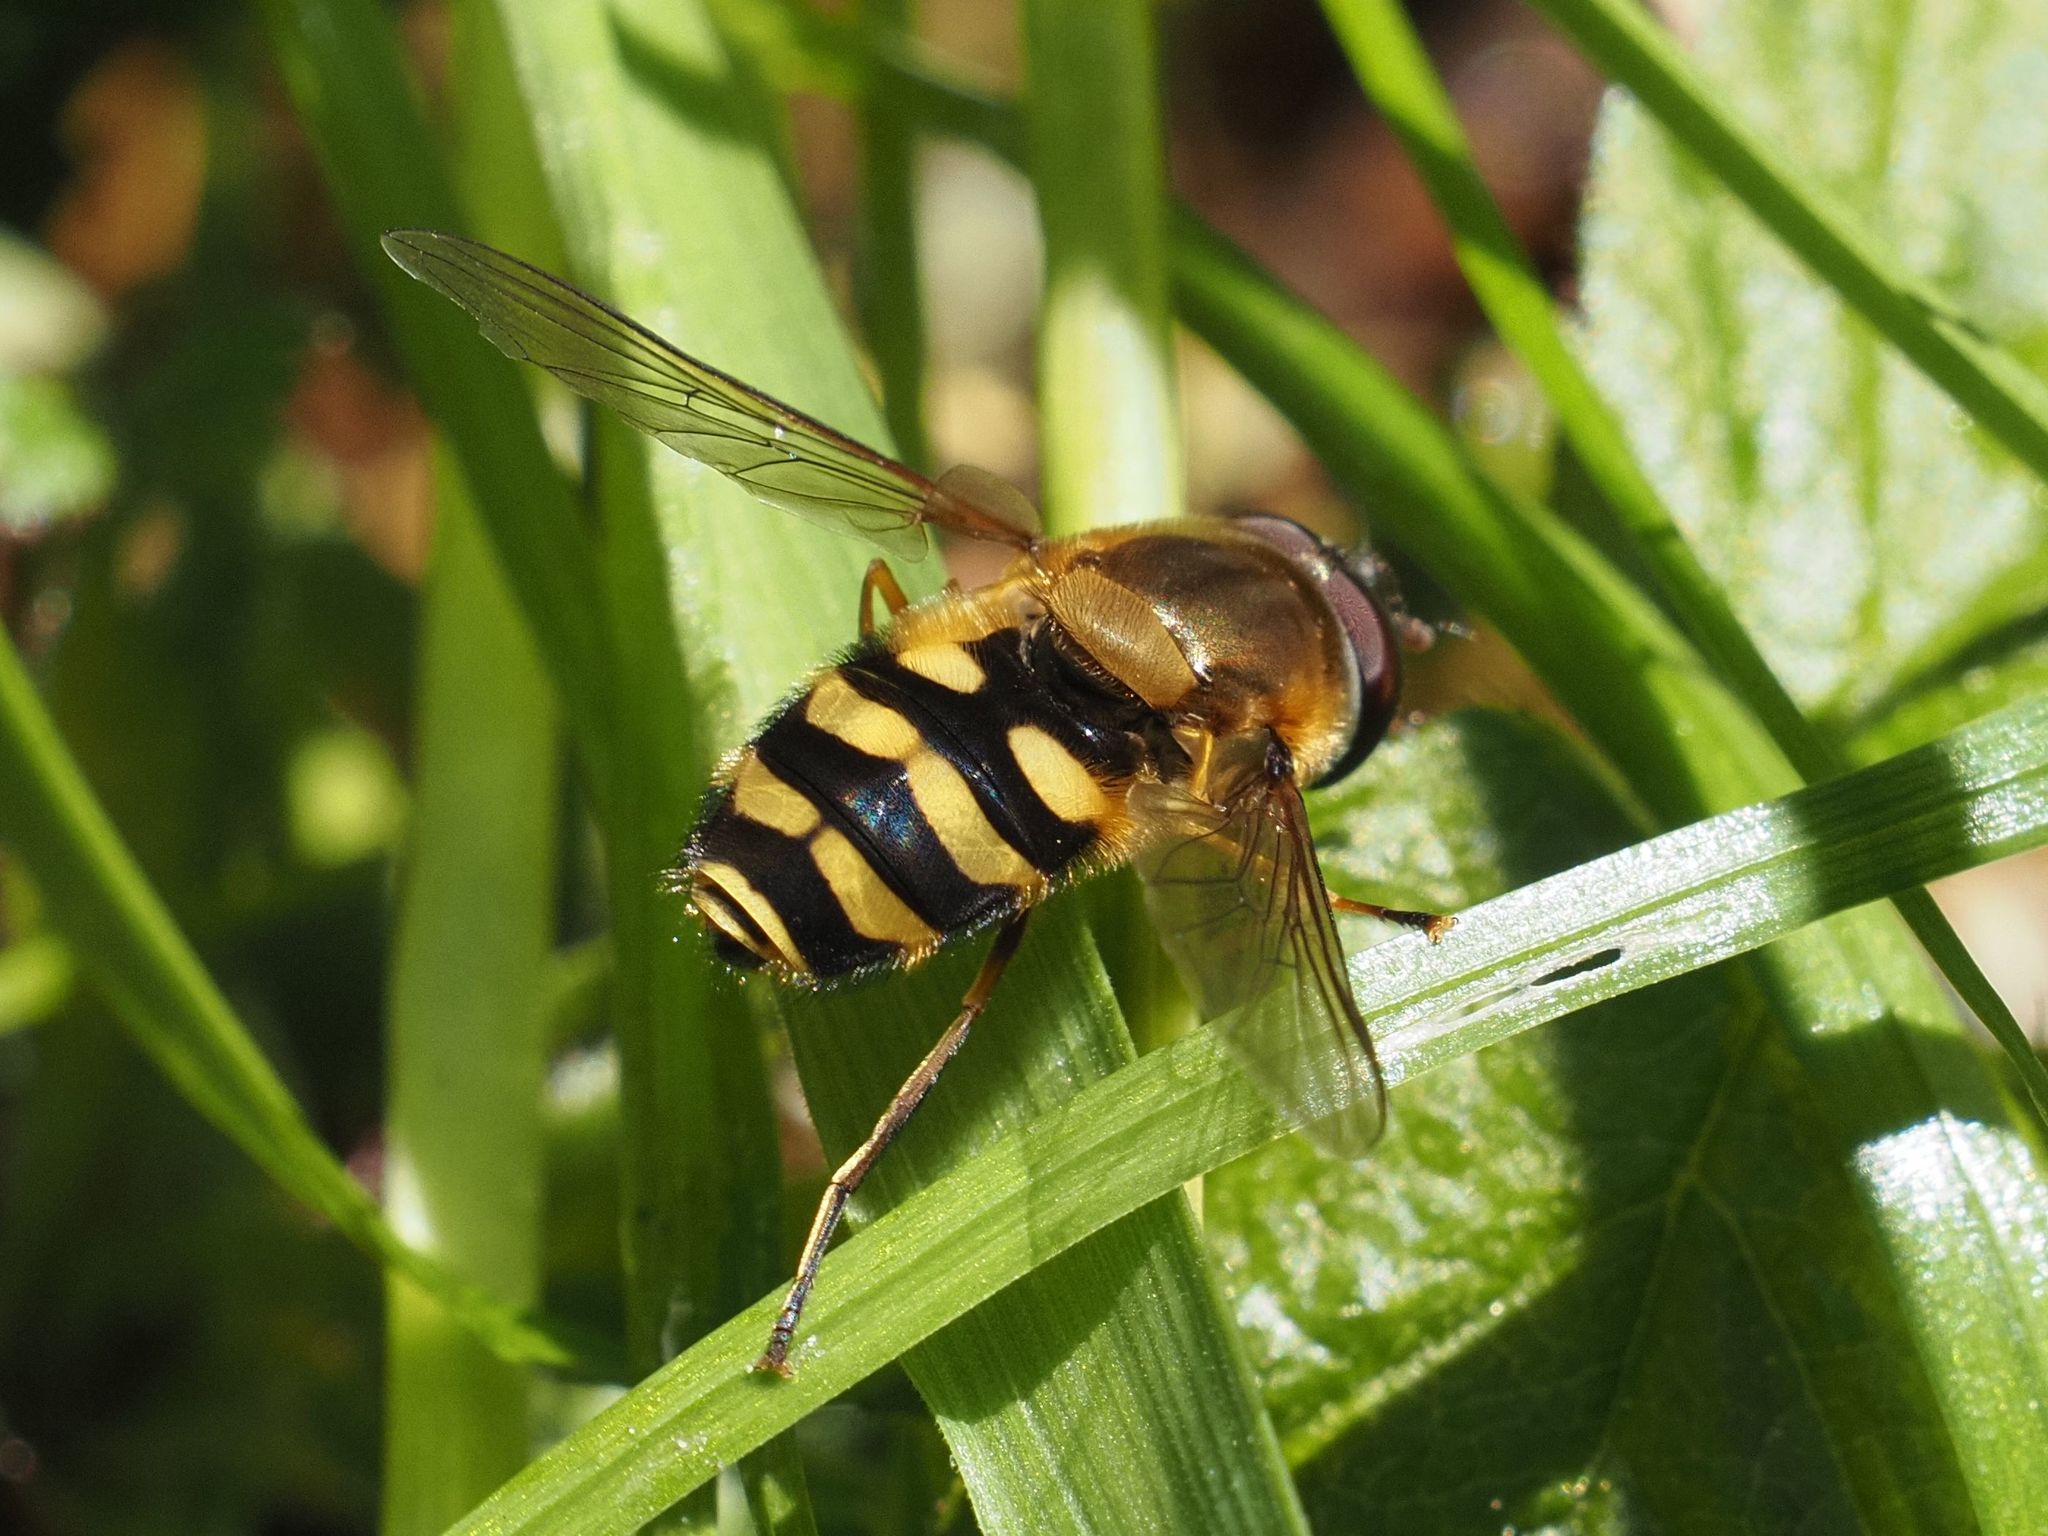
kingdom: Animalia
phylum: Arthropoda
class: Insecta
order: Diptera
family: Syrphidae
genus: Syrphus
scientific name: Syrphus
